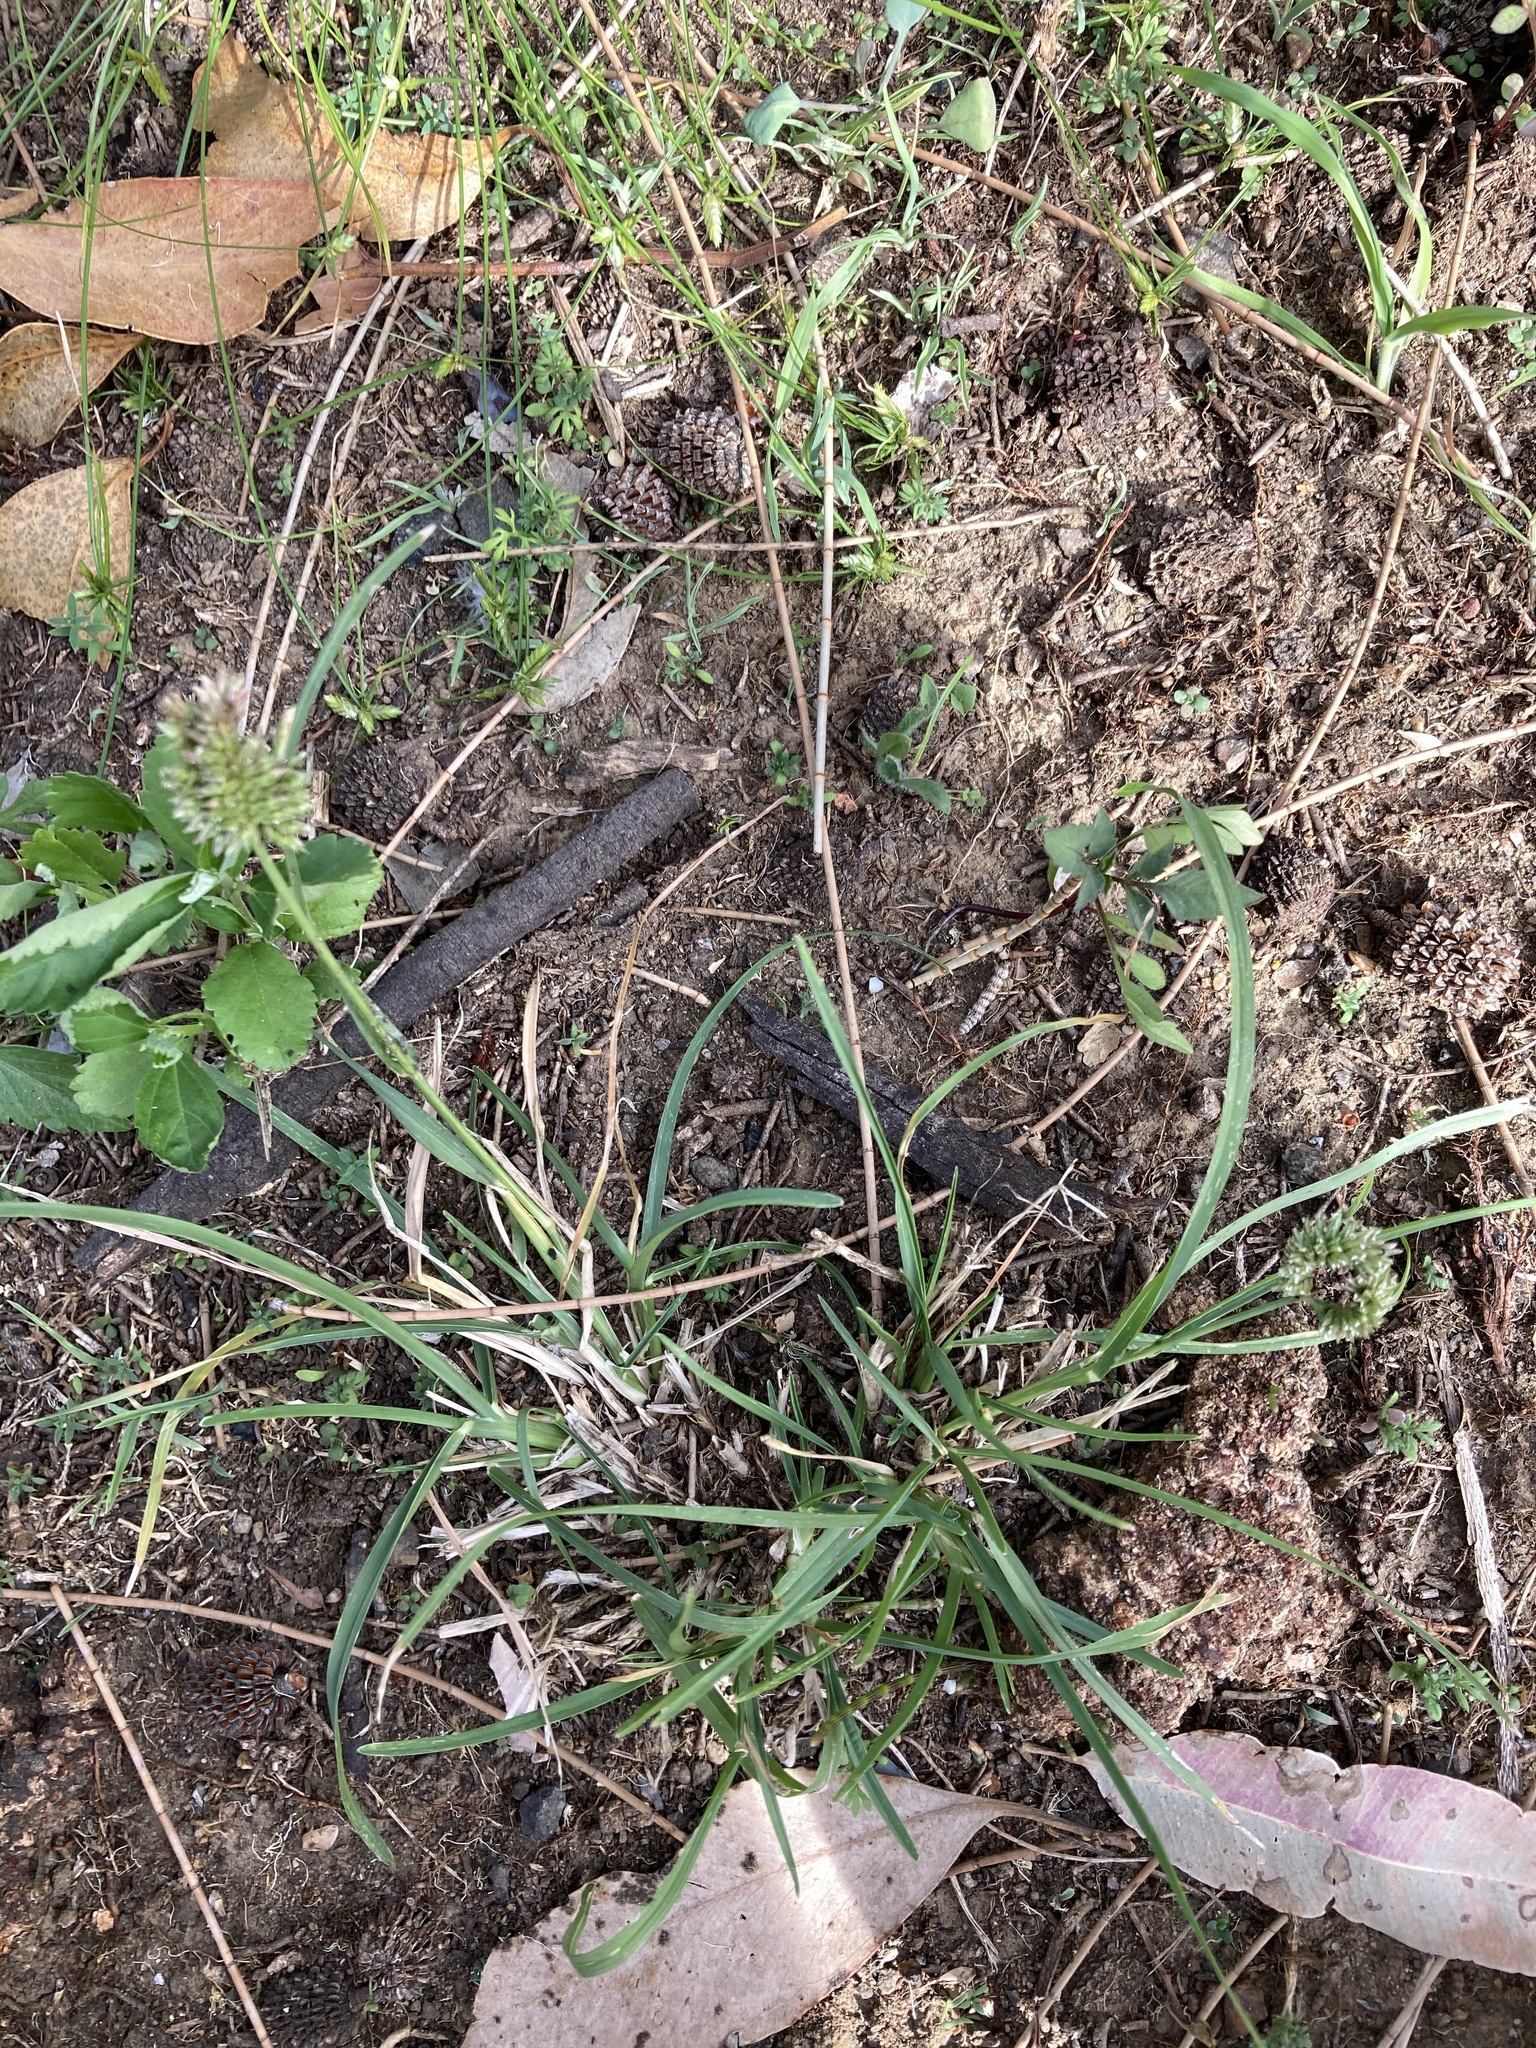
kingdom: Plantae
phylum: Tracheophyta
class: Liliopsida
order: Poales
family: Poaceae
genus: Eleusine
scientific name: Eleusine tristachya
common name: American yard-grass
